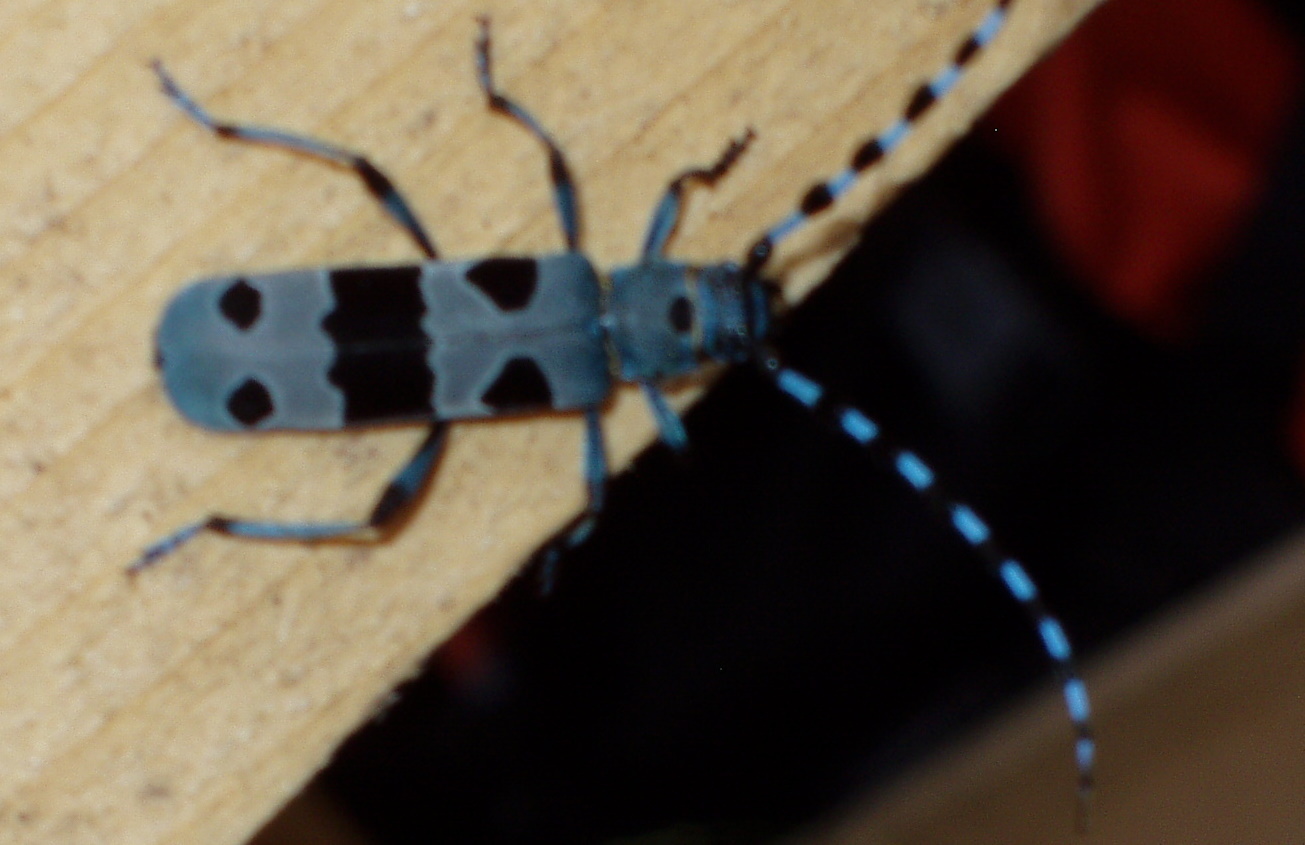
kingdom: Animalia
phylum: Arthropoda
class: Insecta
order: Coleoptera
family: Cerambycidae
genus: Rosalia
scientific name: Rosalia alpina
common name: Rosalia longicorn
